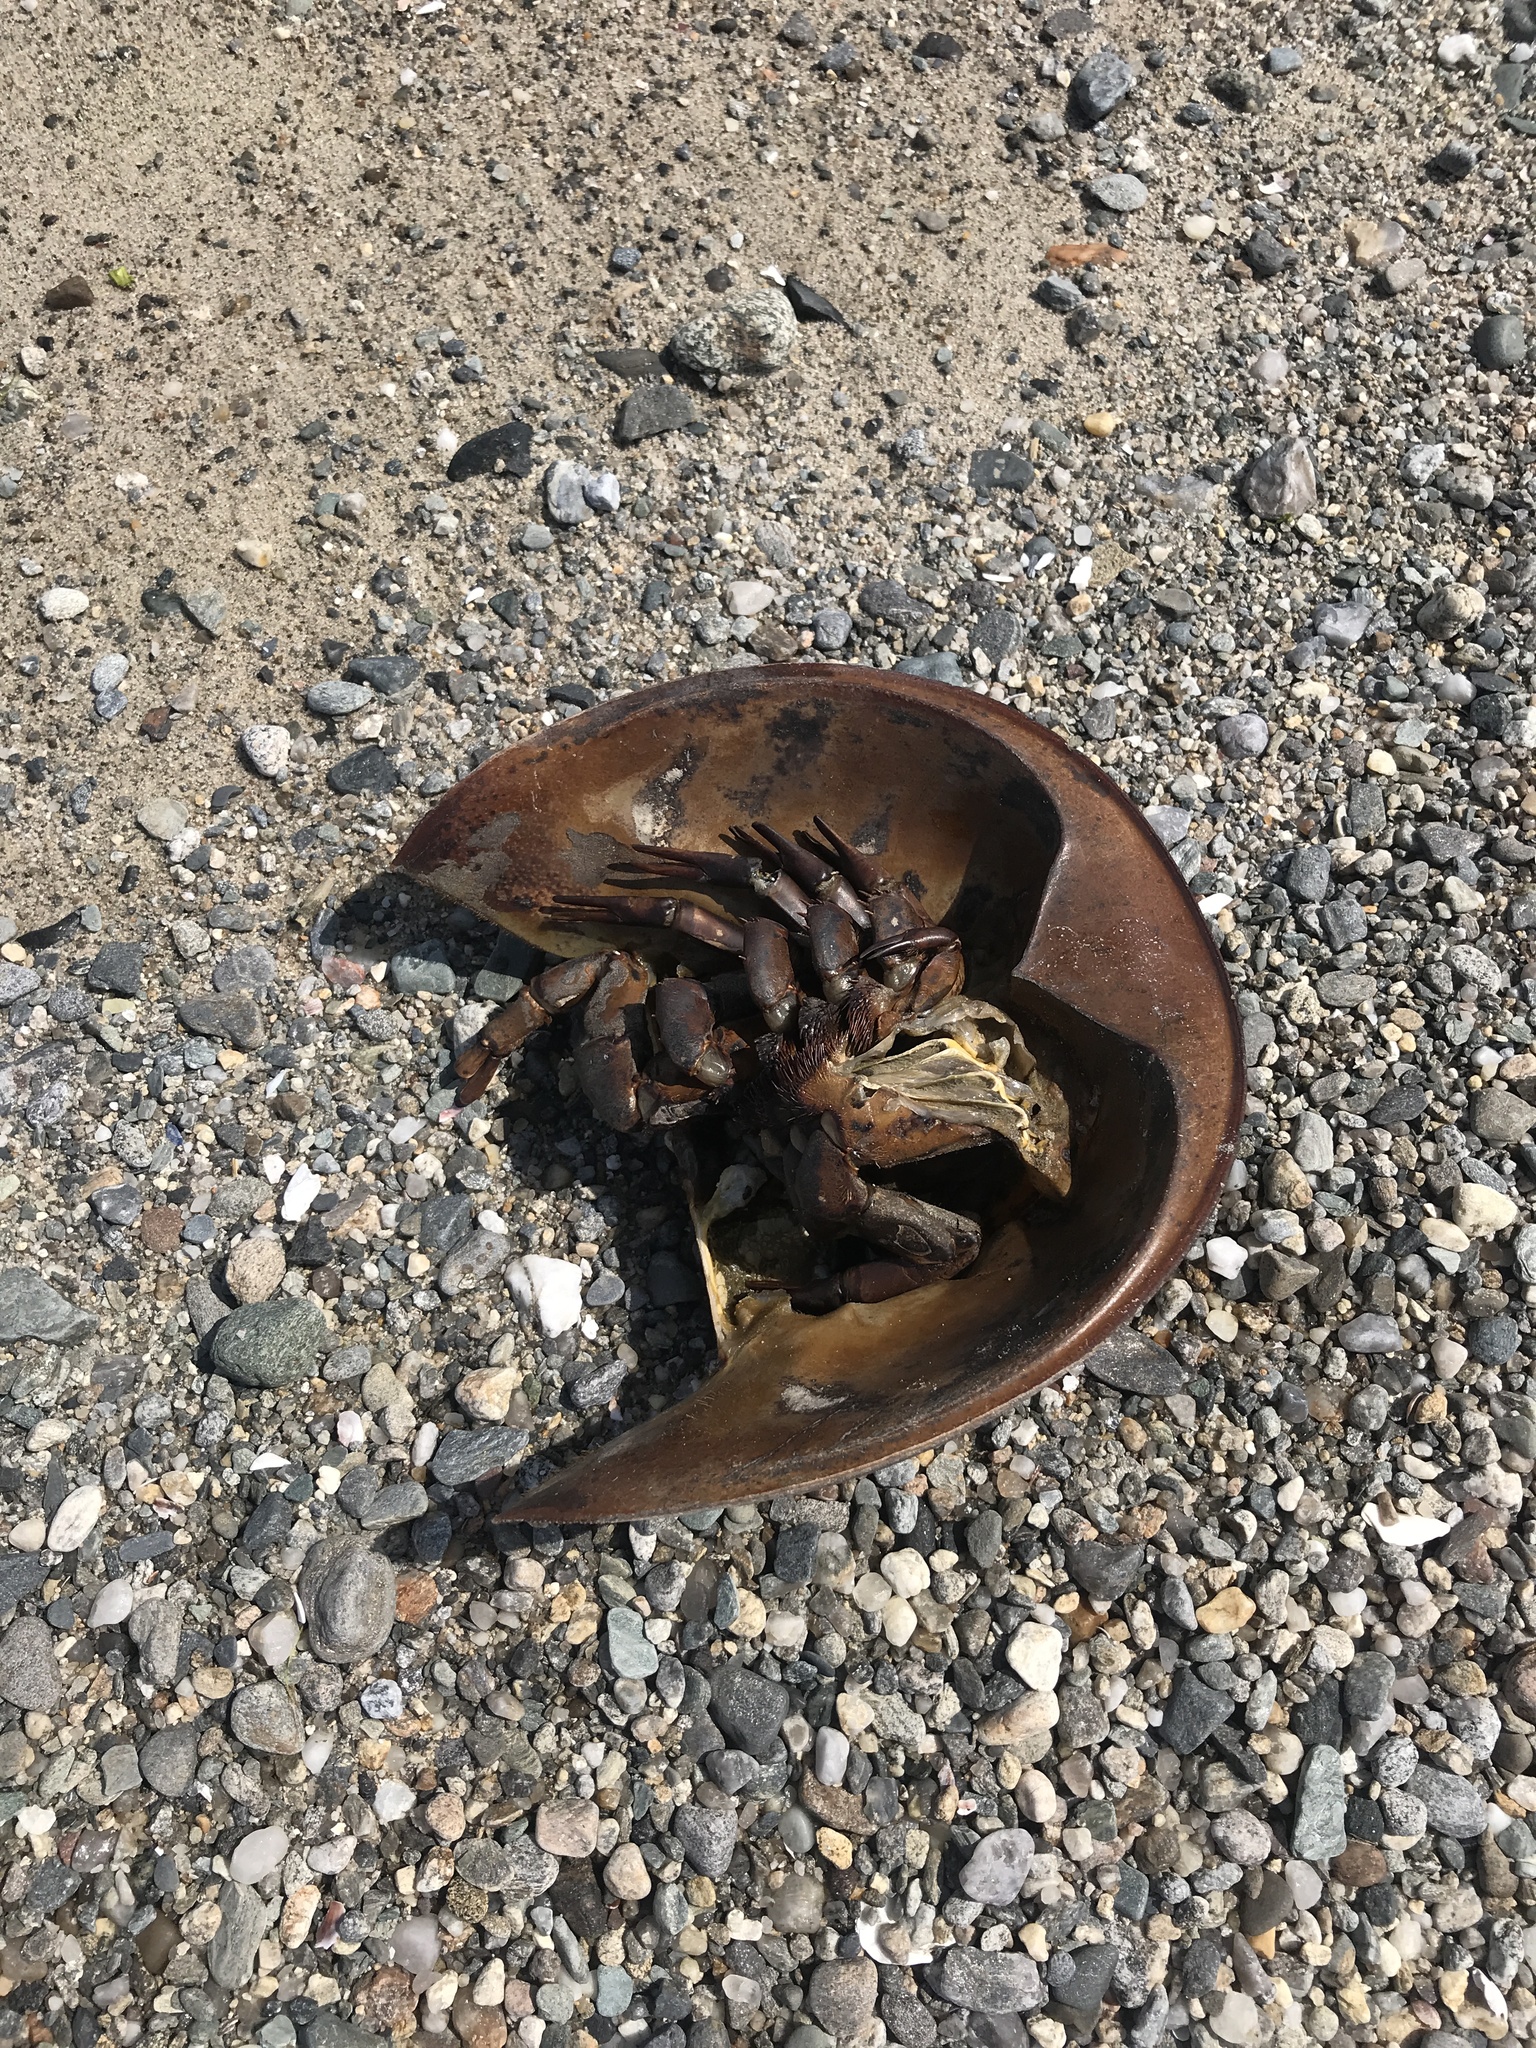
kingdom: Animalia
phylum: Arthropoda
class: Merostomata
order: Xiphosurida
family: Limulidae
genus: Limulus
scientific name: Limulus polyphemus
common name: Horseshoe crab
